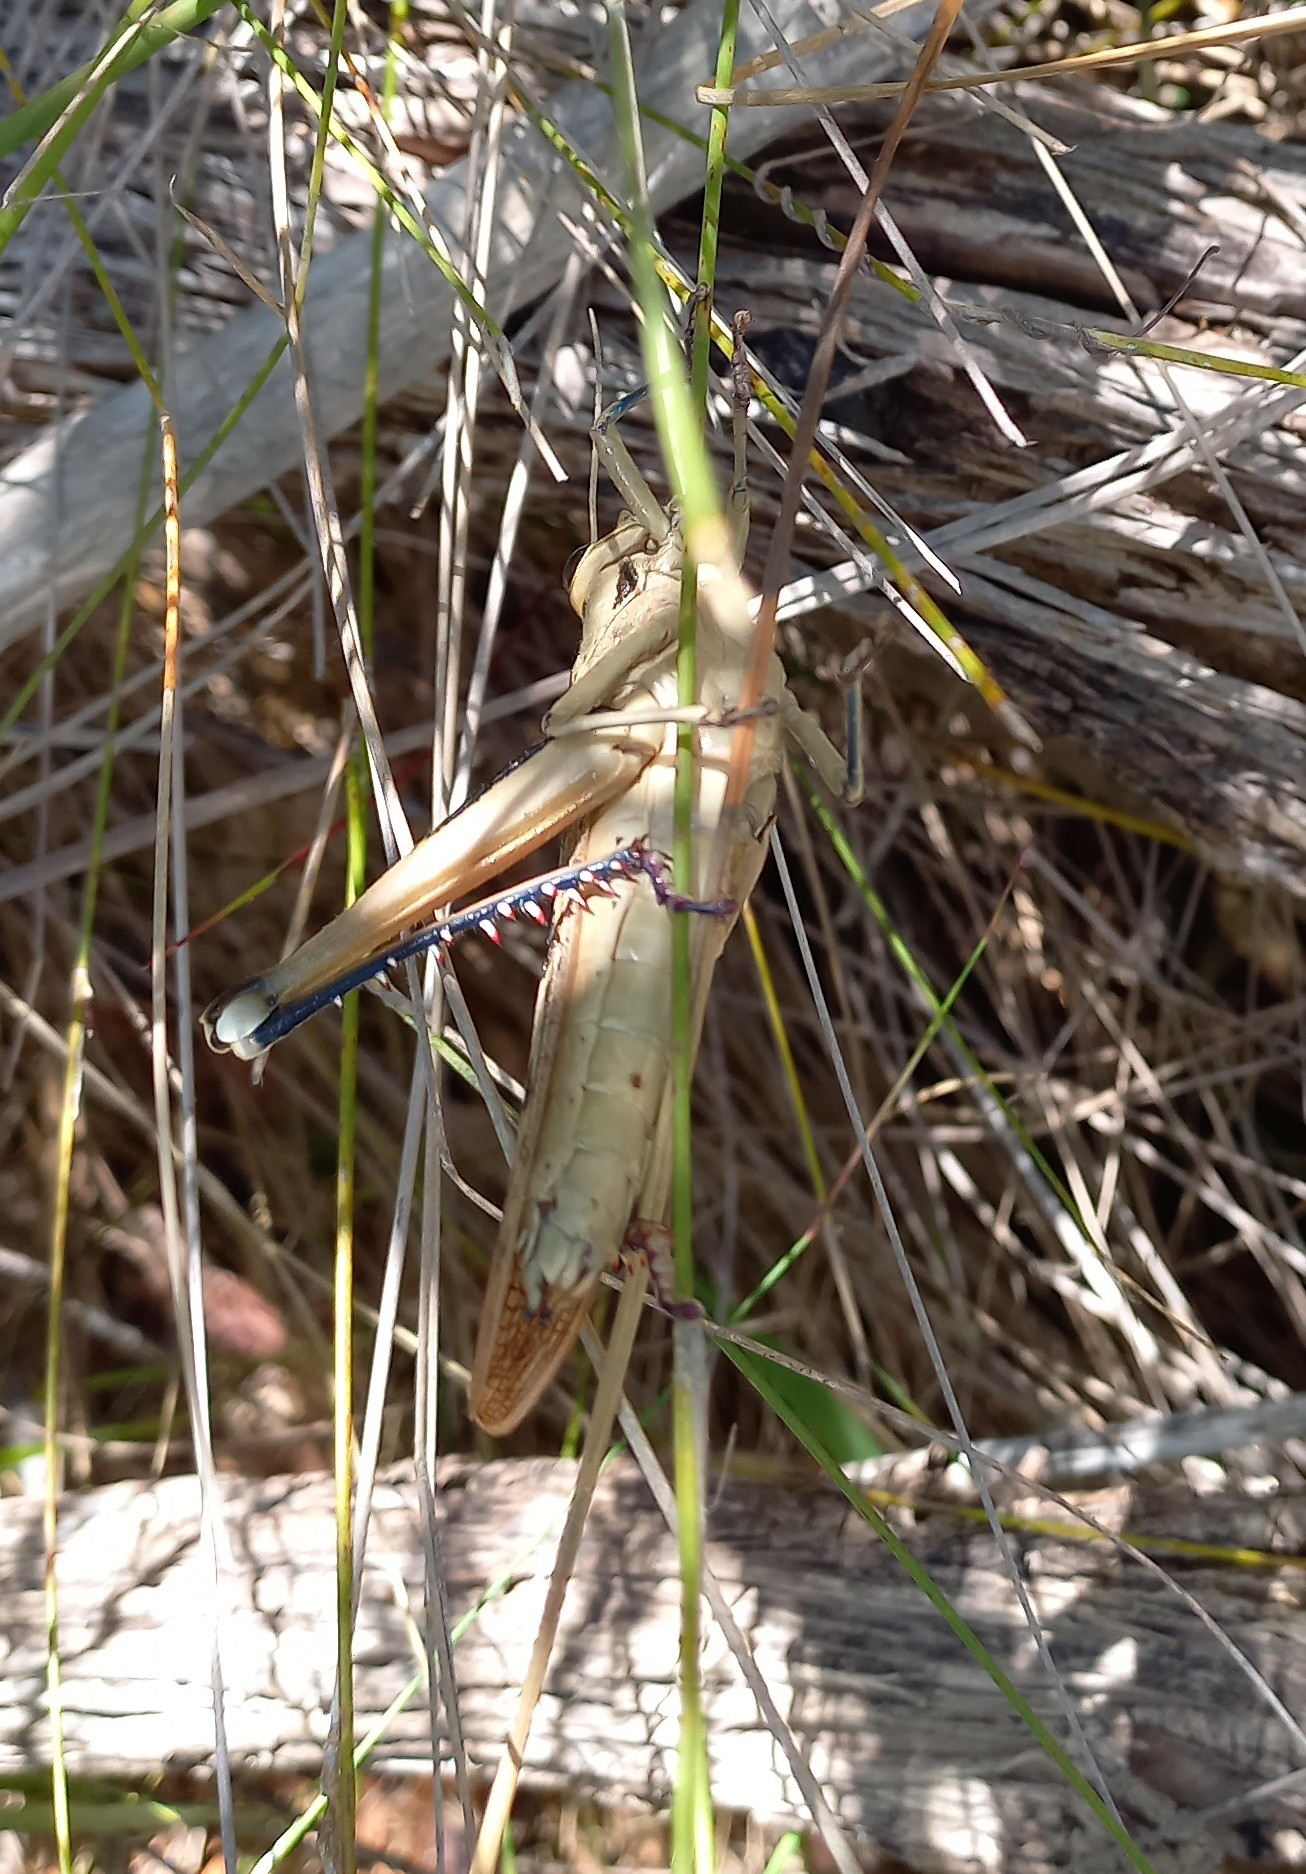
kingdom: Animalia
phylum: Arthropoda
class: Insecta
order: Orthoptera
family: Acrididae
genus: Acanthacris
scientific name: Acanthacris ruficornis
